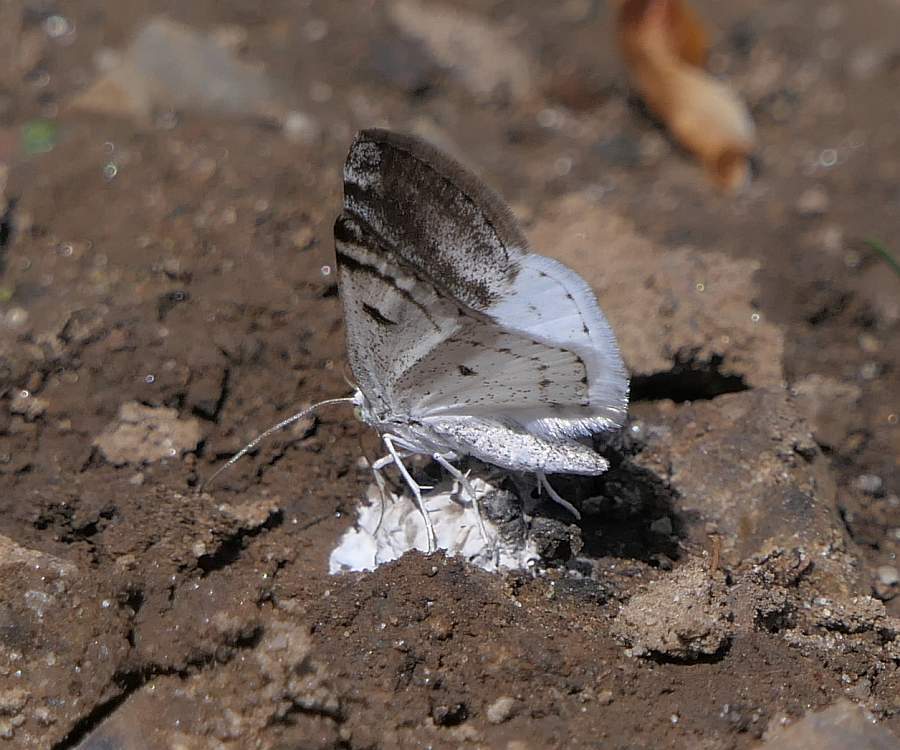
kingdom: Animalia
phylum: Arthropoda
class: Insecta
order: Lepidoptera
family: Geometridae
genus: Lomographa
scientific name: Lomographa semiclarata
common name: Bluish spring moth
